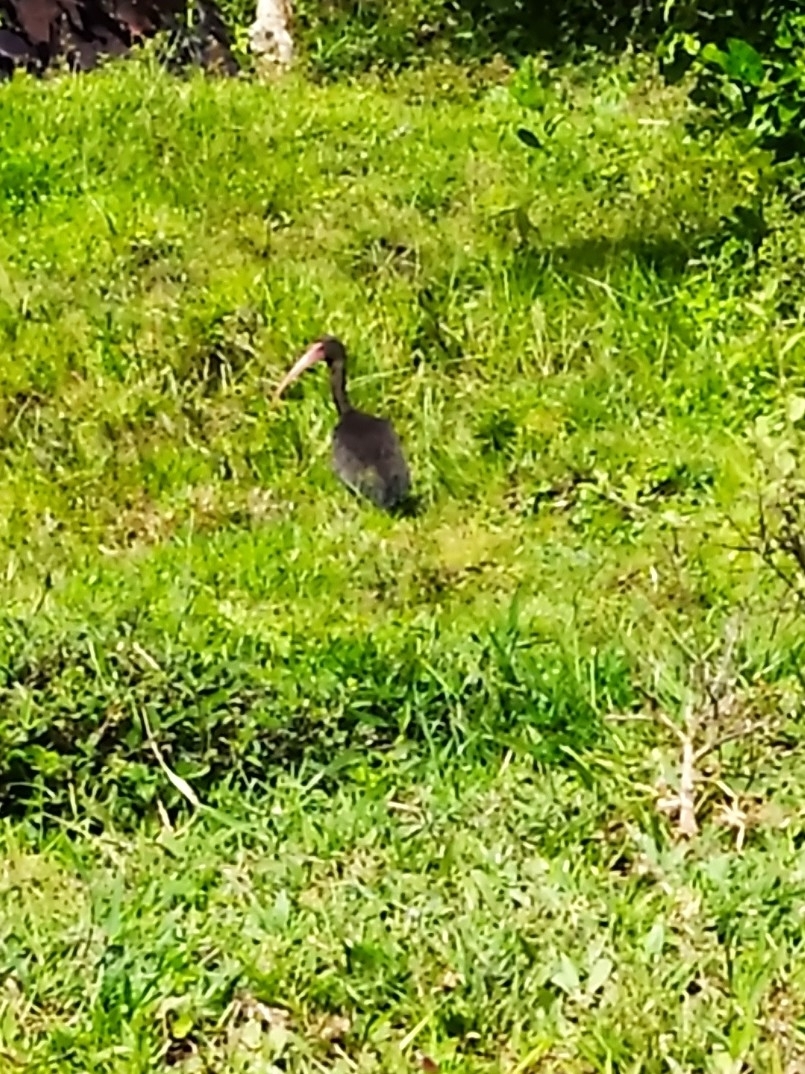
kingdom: Animalia
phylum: Chordata
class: Aves
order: Pelecaniformes
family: Threskiornithidae
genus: Phimosus
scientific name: Phimosus infuscatus
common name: Bare-faced ibis
